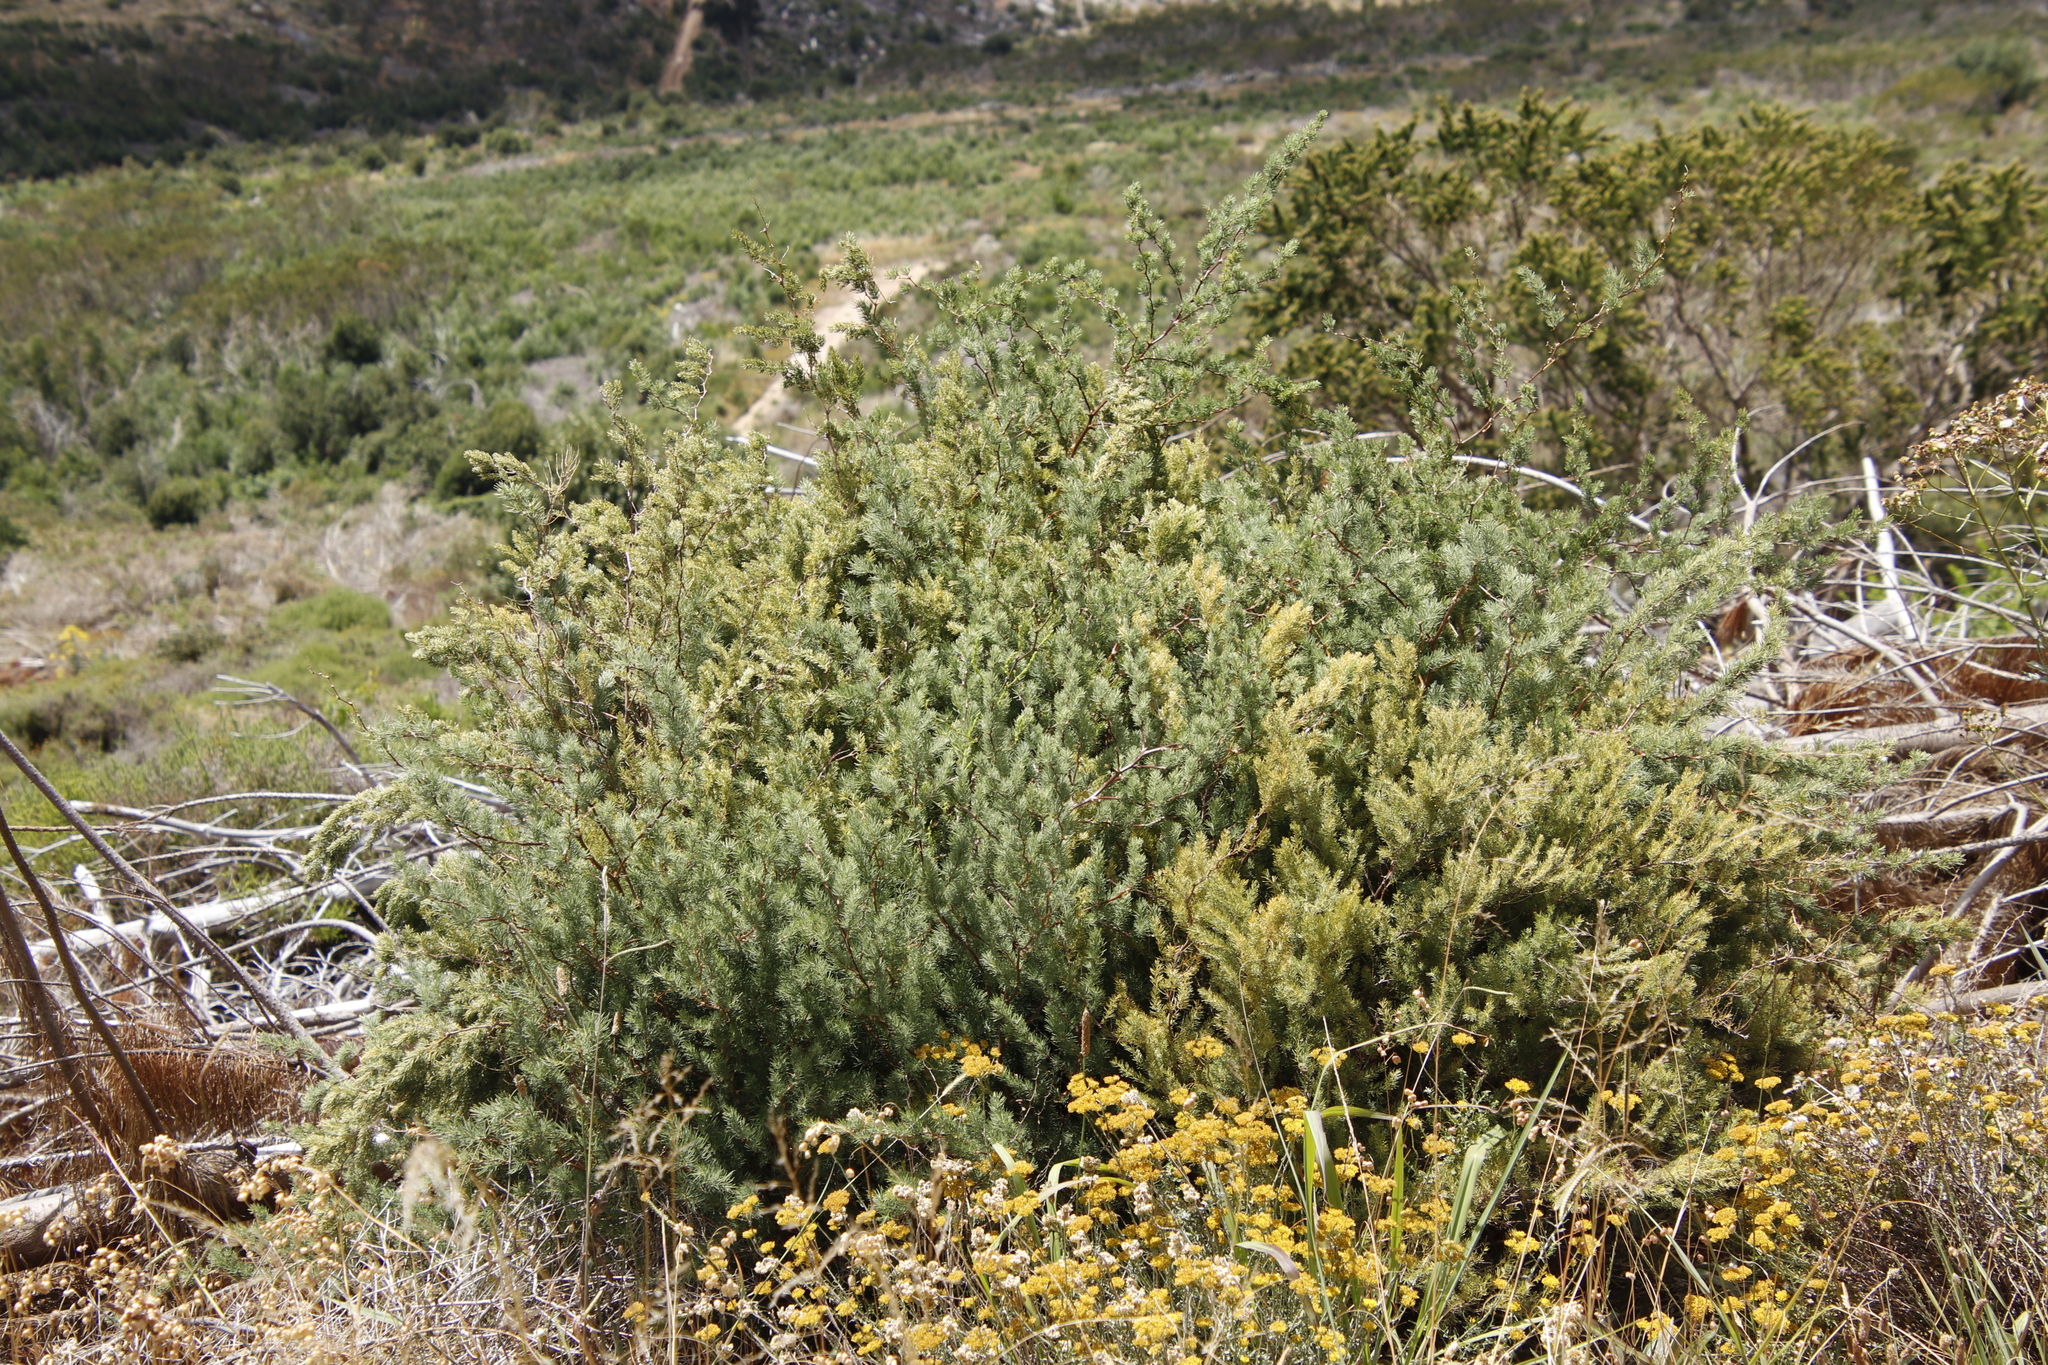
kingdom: Plantae
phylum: Tracheophyta
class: Liliopsida
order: Asparagales
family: Asparagaceae
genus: Asparagus
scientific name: Asparagus rubicundus
